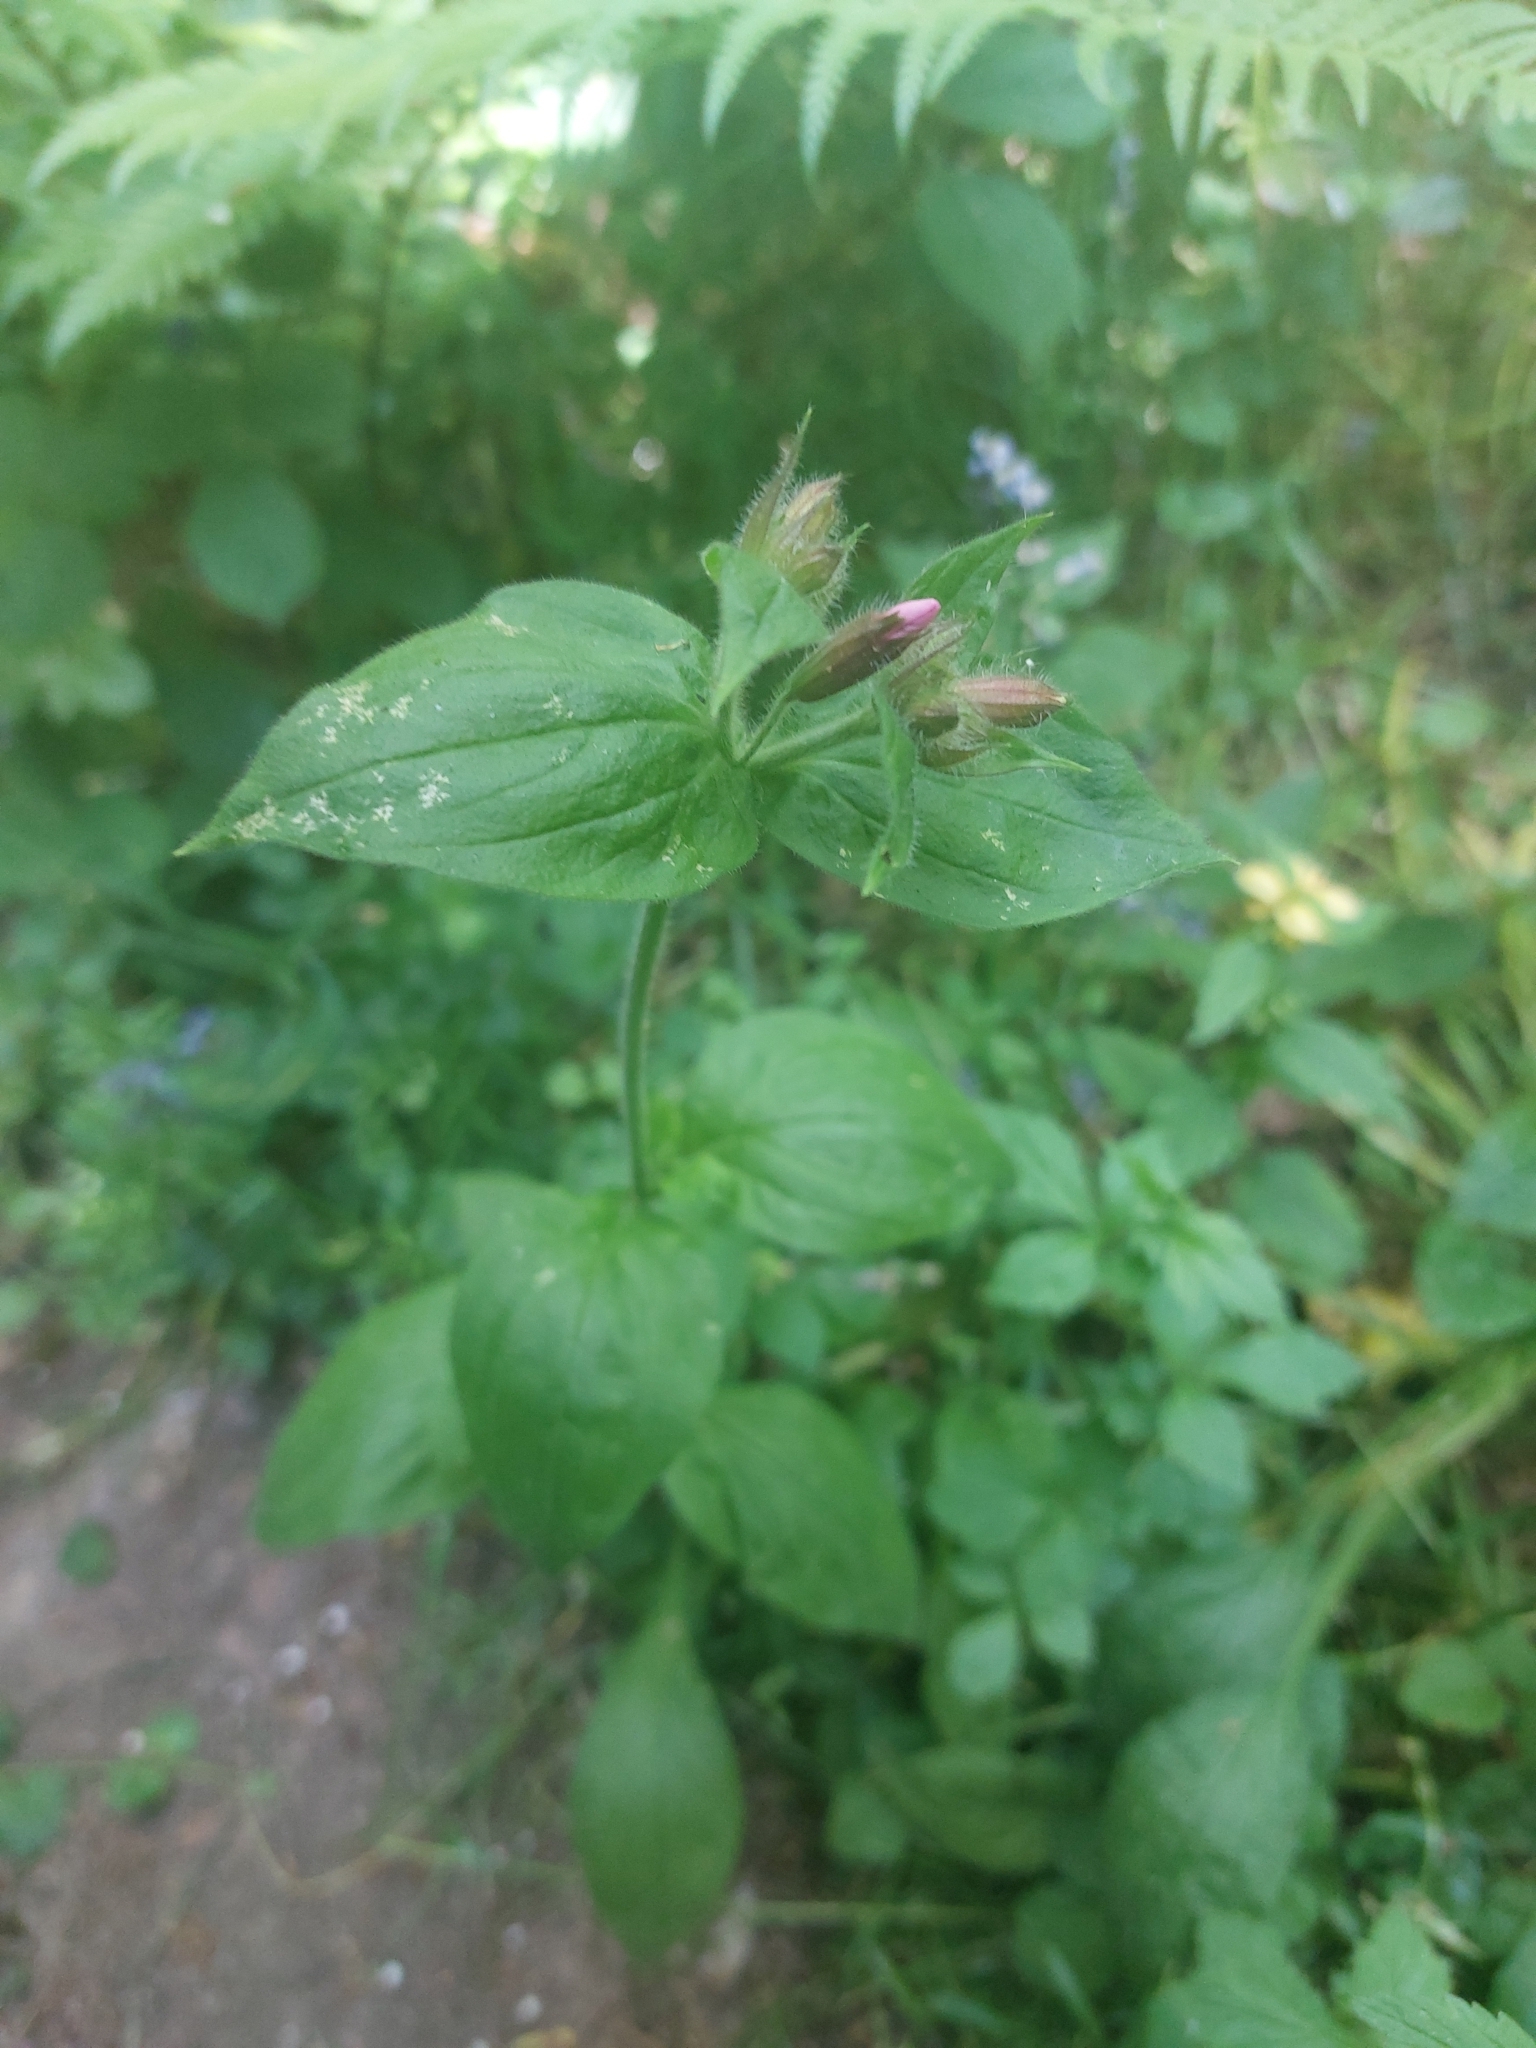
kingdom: Plantae
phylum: Tracheophyta
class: Magnoliopsida
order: Caryophyllales
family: Caryophyllaceae
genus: Silene
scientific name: Silene dioica
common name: Red campion
